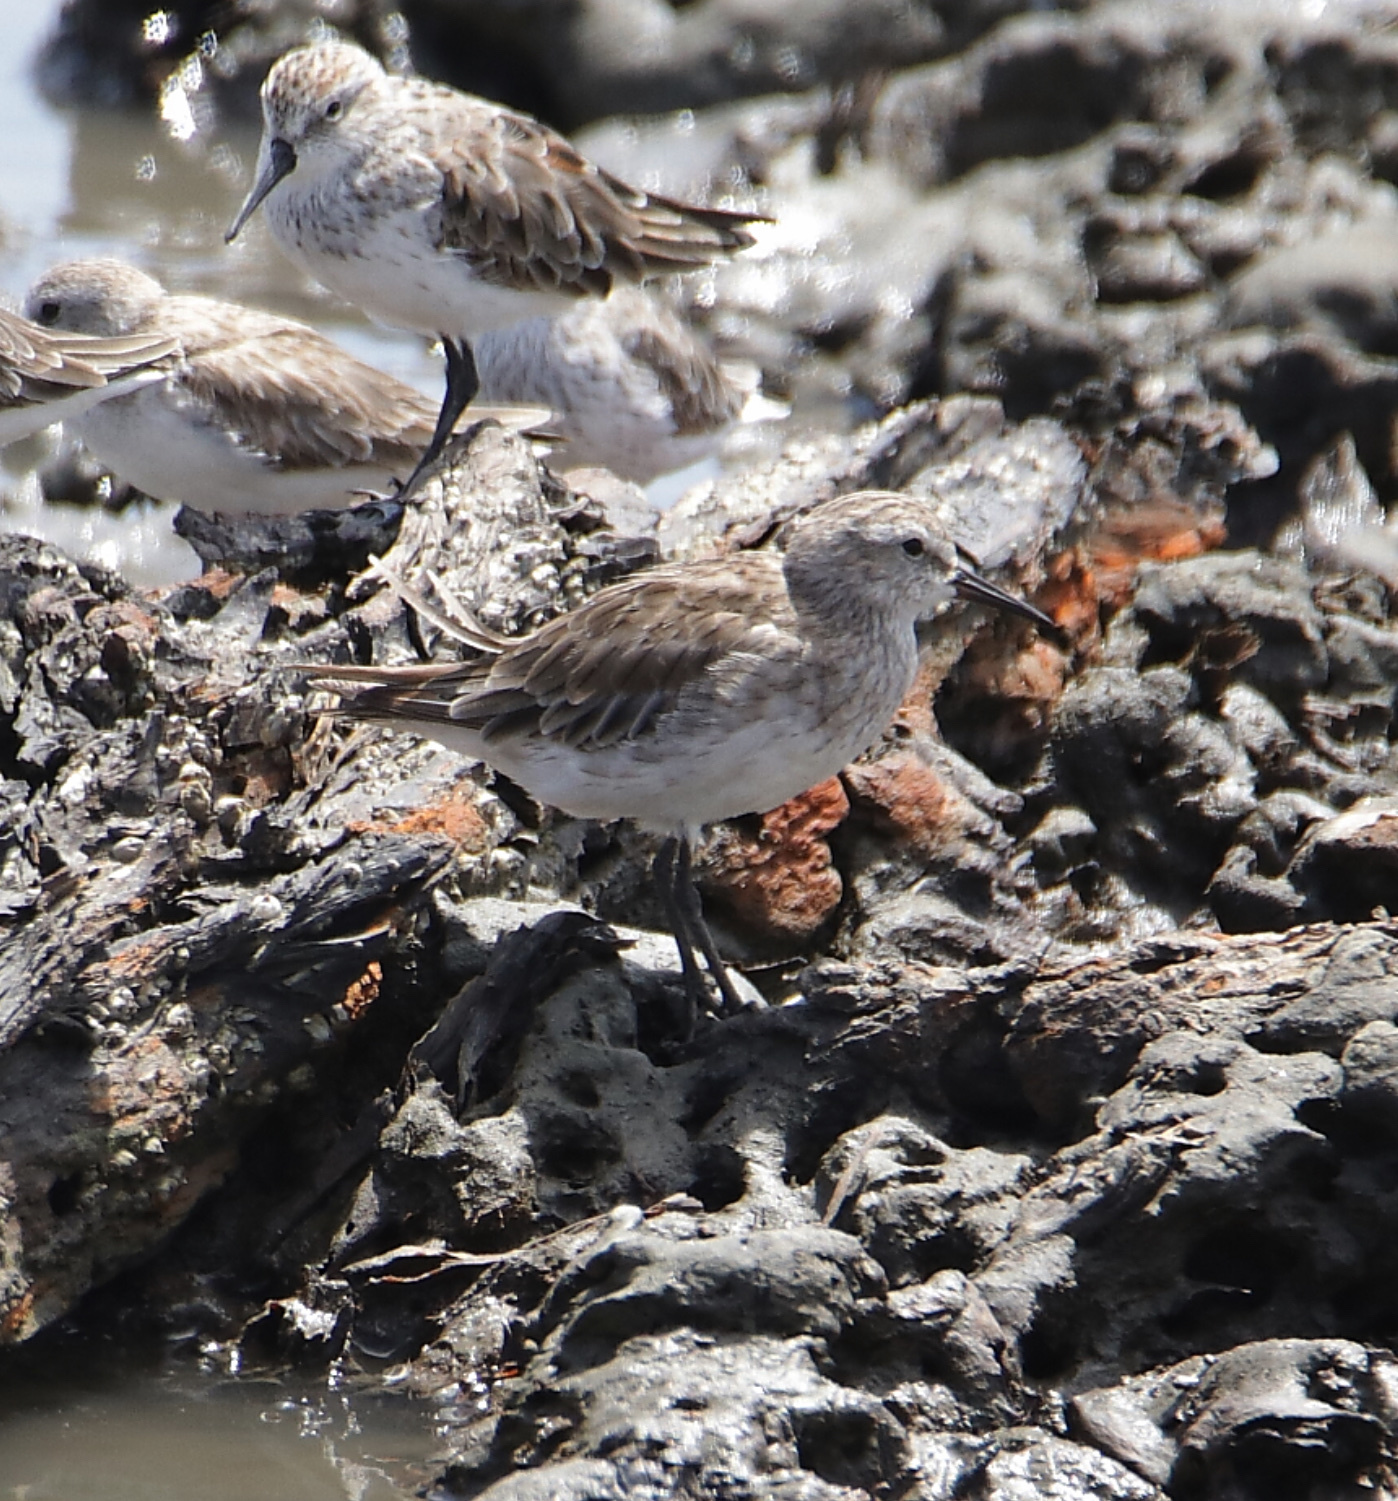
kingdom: Animalia
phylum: Chordata
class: Aves
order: Charadriiformes
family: Scolopacidae
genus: Calidris
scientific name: Calidris fuscicollis
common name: White-rumped sandpiper
